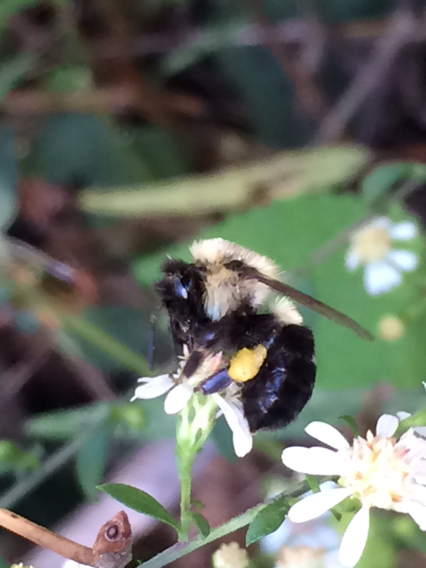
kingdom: Animalia
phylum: Arthropoda
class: Insecta
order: Hymenoptera
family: Apidae
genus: Bombus
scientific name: Bombus impatiens
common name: Common eastern bumble bee
